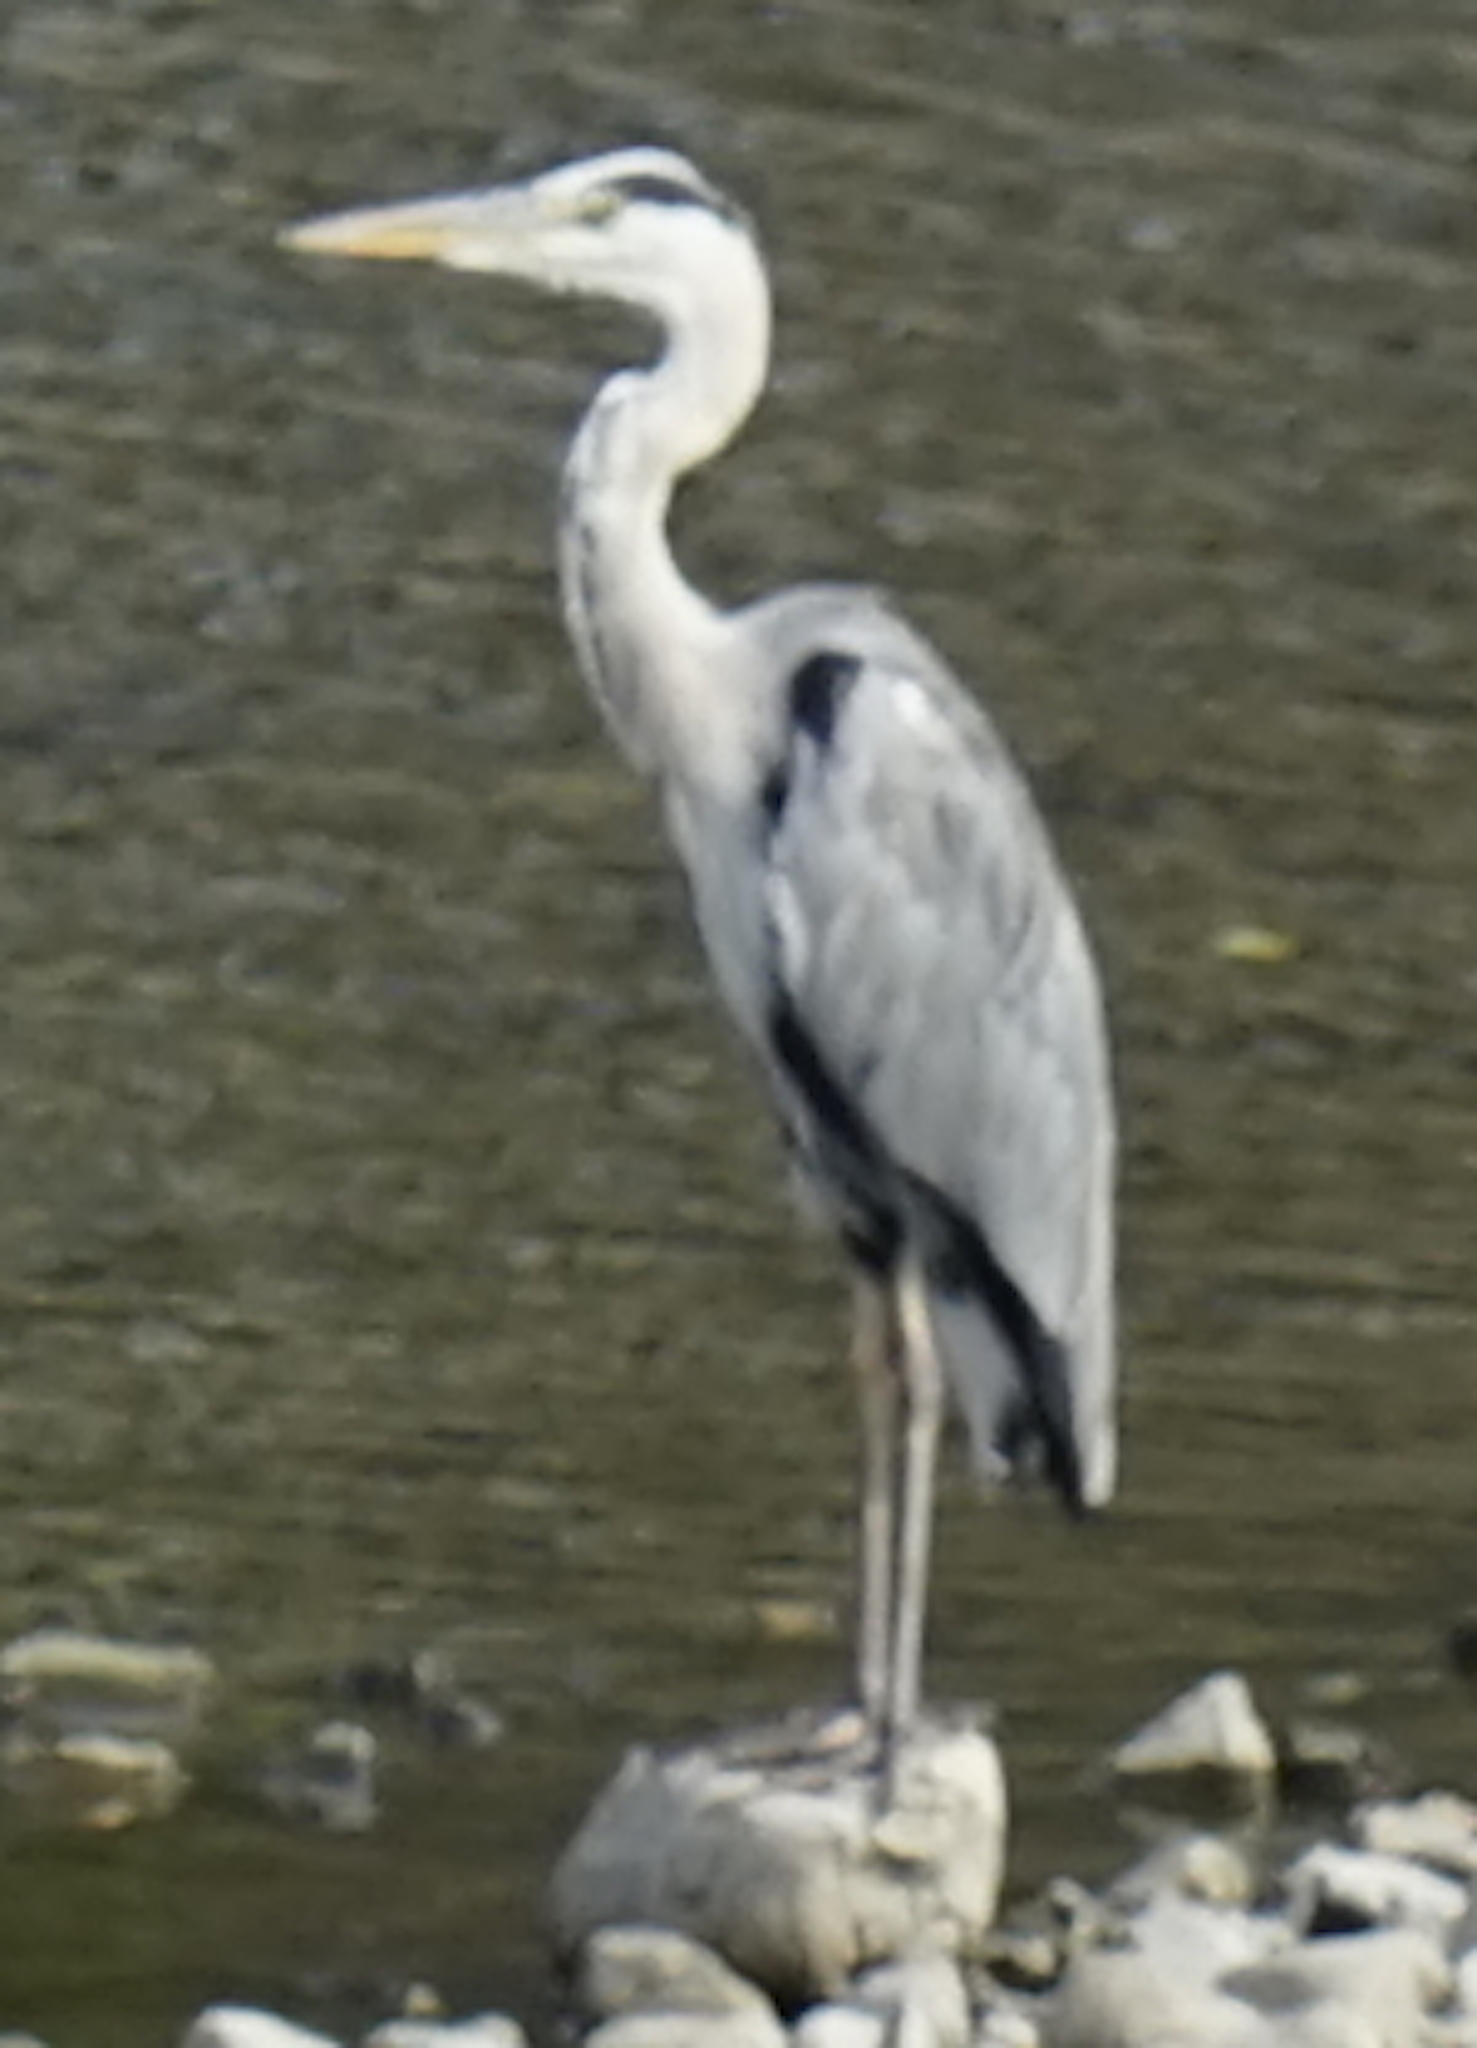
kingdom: Animalia
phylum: Chordata
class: Aves
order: Pelecaniformes
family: Ardeidae
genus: Ardea
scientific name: Ardea cinerea
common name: Grey heron
